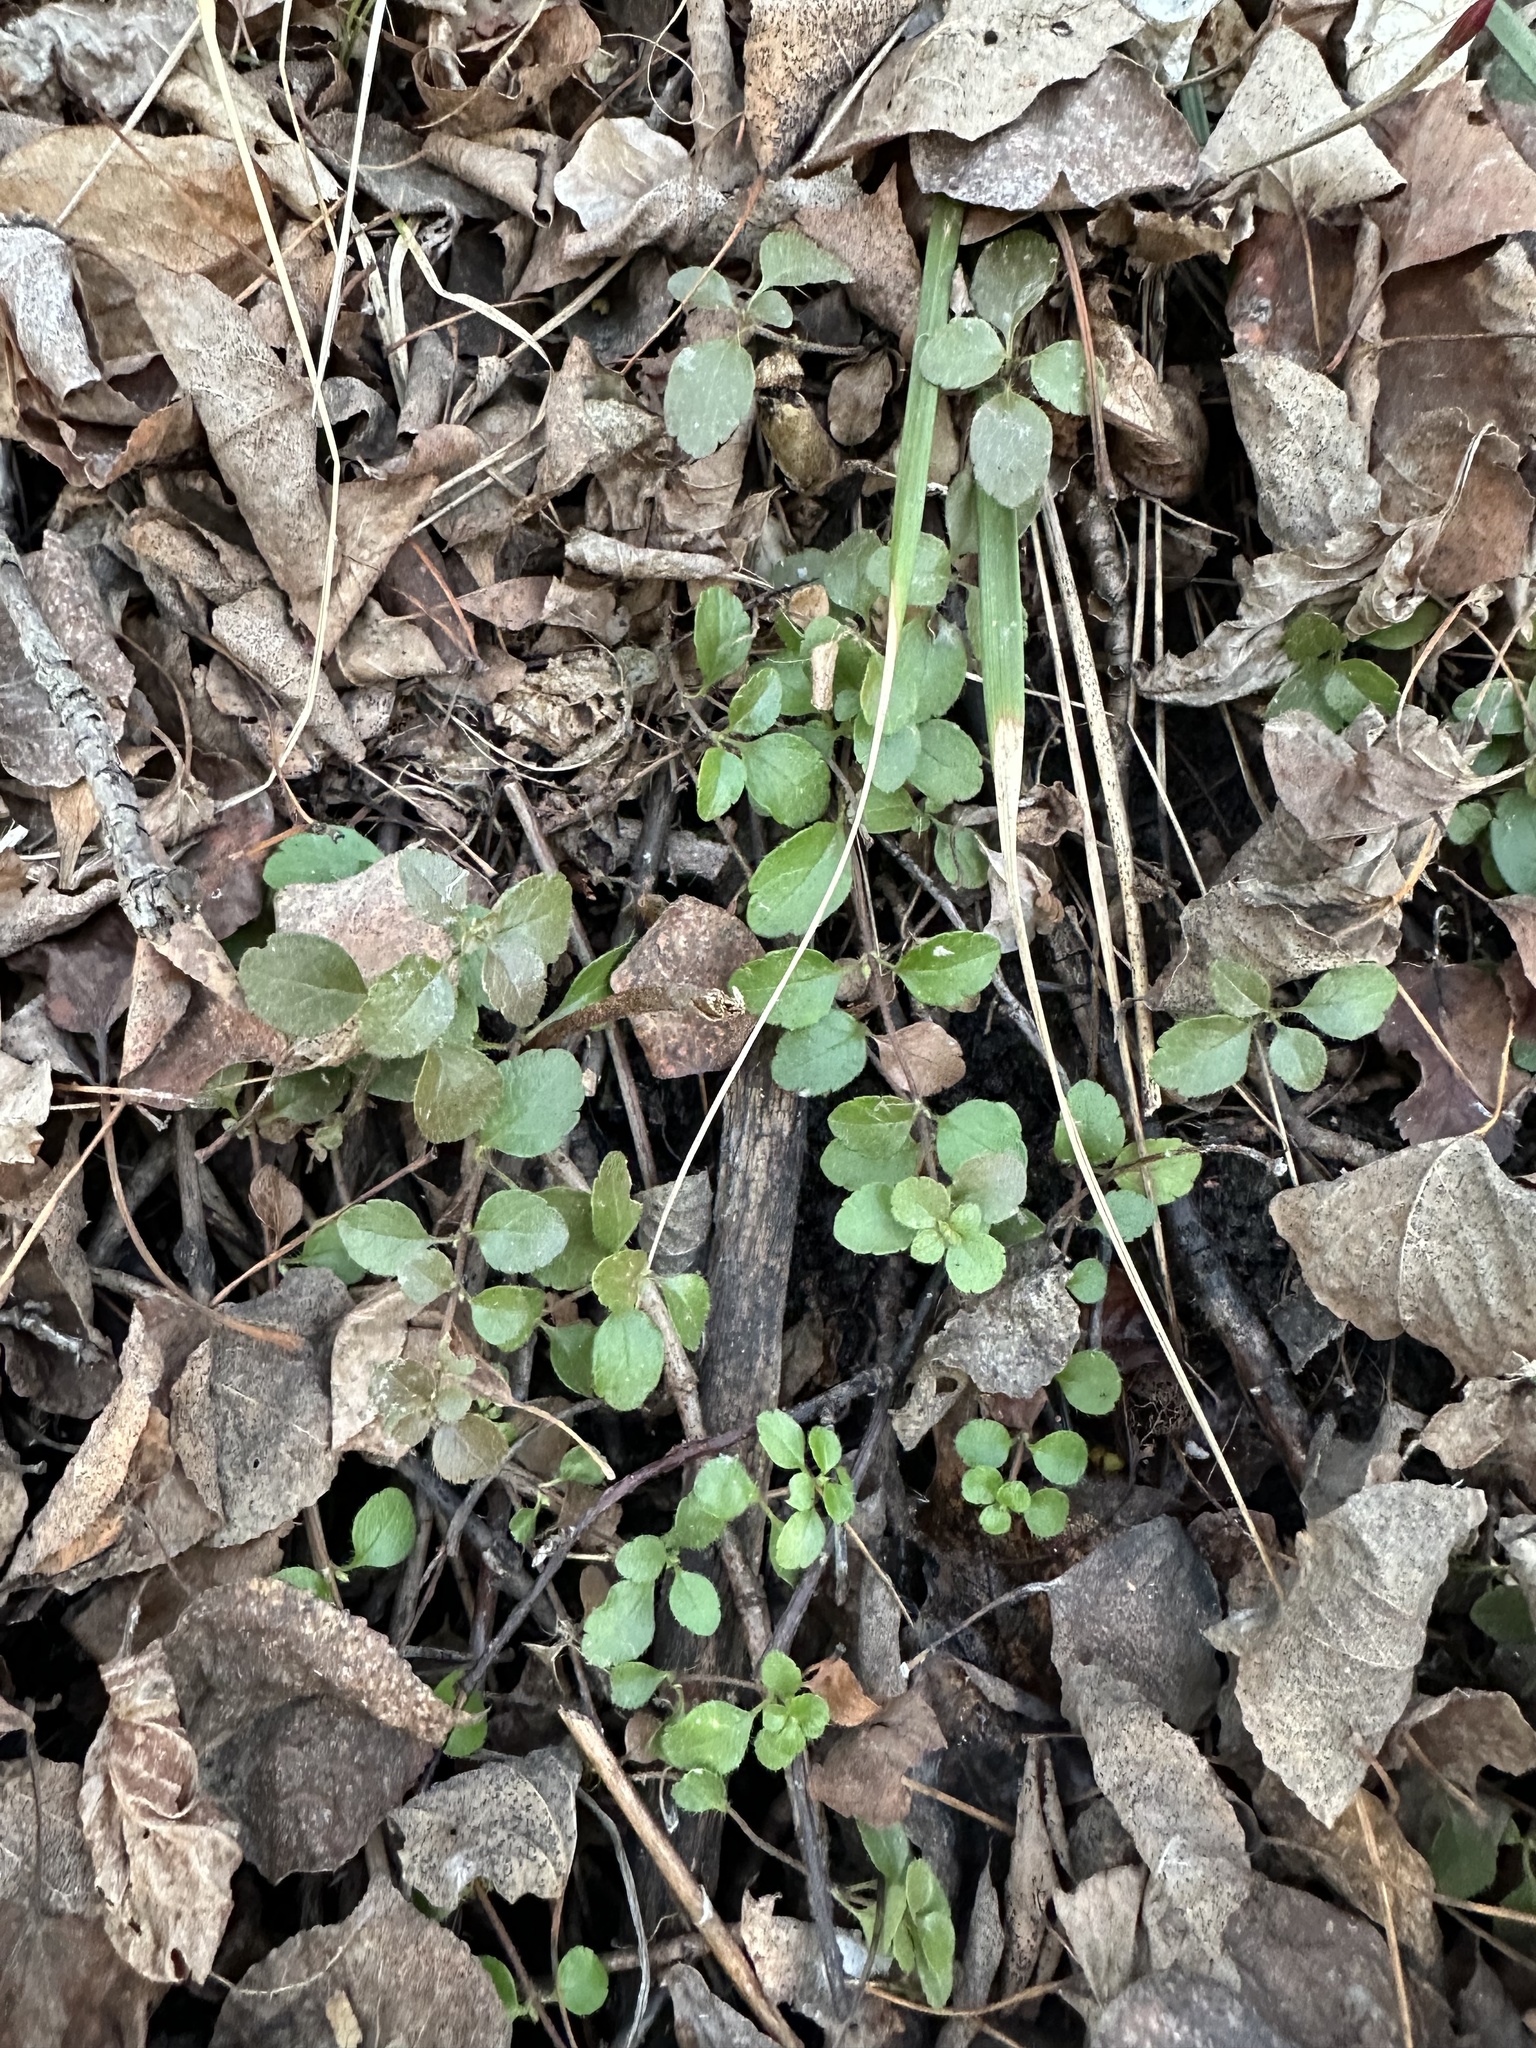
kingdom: Plantae
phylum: Tracheophyta
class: Magnoliopsida
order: Dipsacales
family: Caprifoliaceae
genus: Linnaea
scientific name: Linnaea borealis
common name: Twinflower
